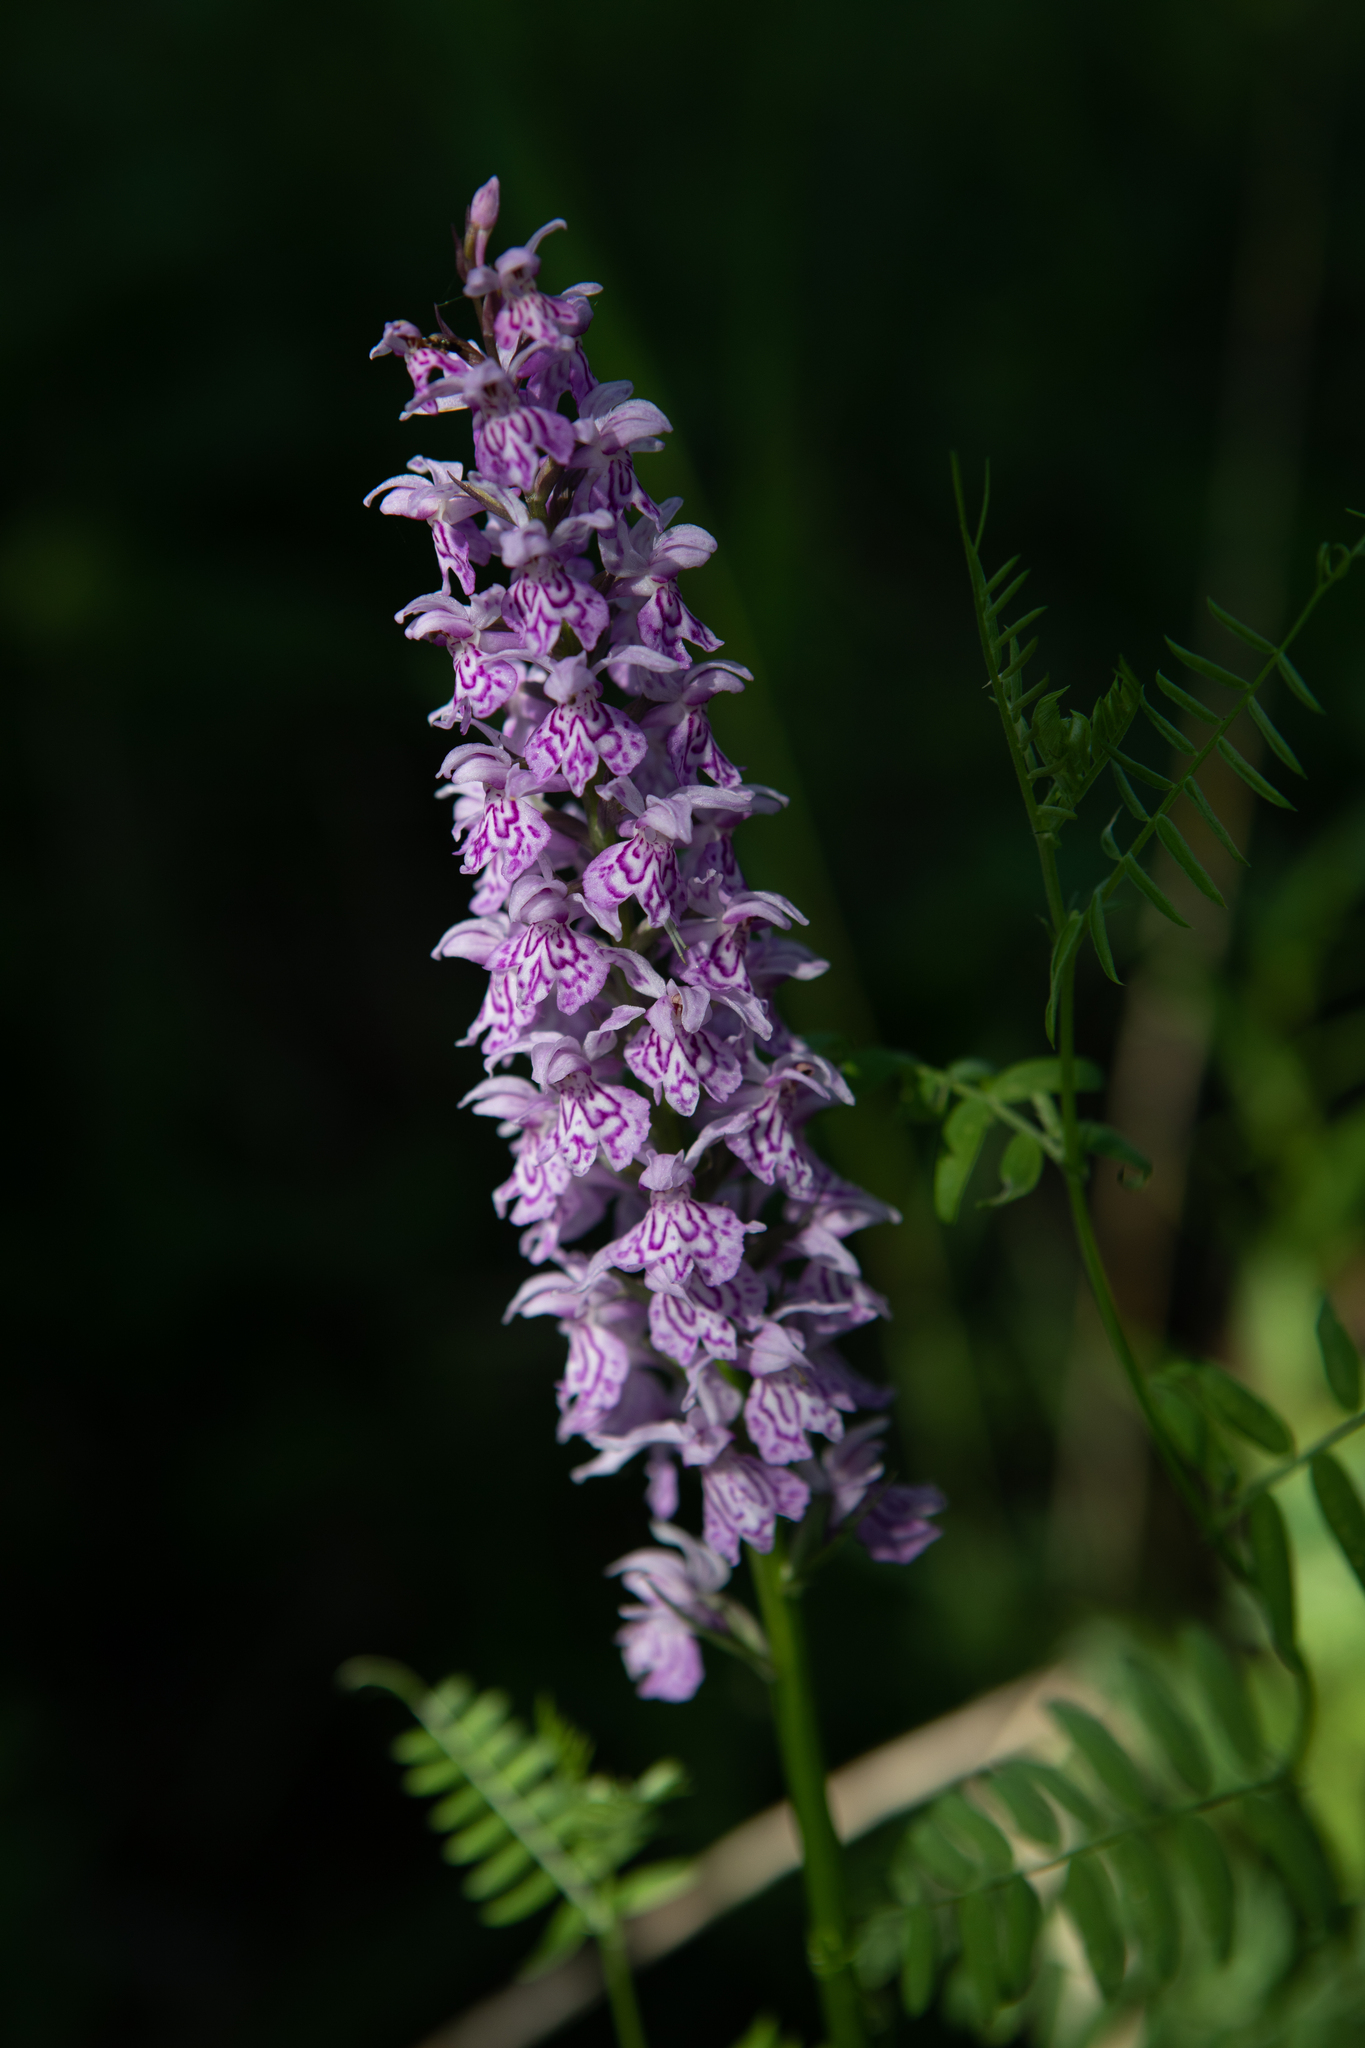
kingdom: Plantae
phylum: Tracheophyta
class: Liliopsida
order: Asparagales
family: Orchidaceae
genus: Dactylorhiza
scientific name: Dactylorhiza maculata
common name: Heath spotted-orchid
